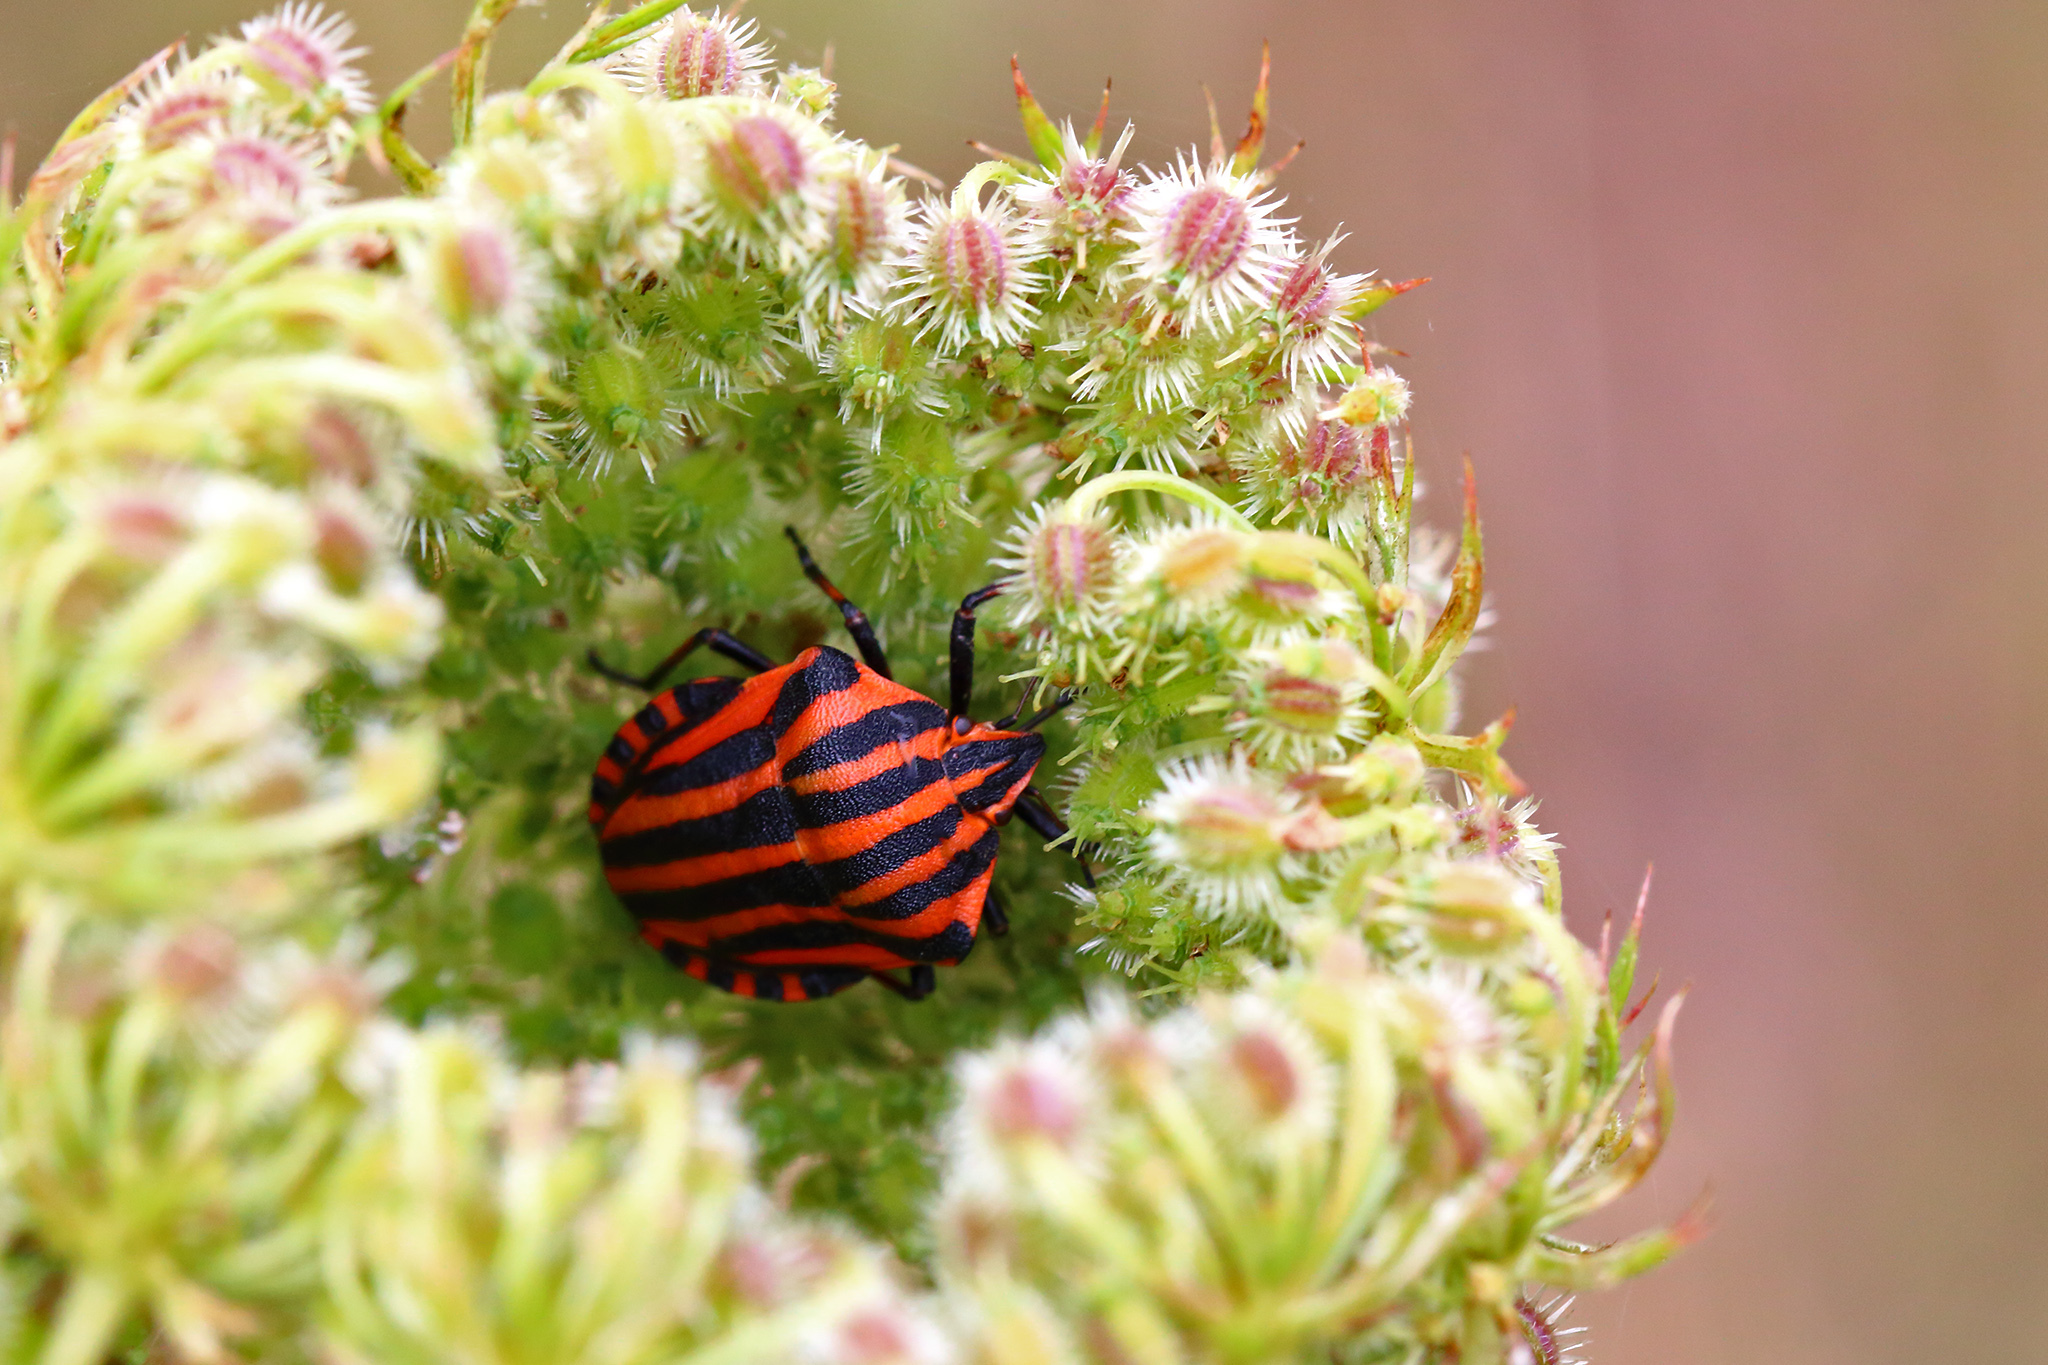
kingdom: Animalia
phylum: Arthropoda
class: Insecta
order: Hemiptera
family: Pentatomidae
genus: Graphosoma
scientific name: Graphosoma italicum
